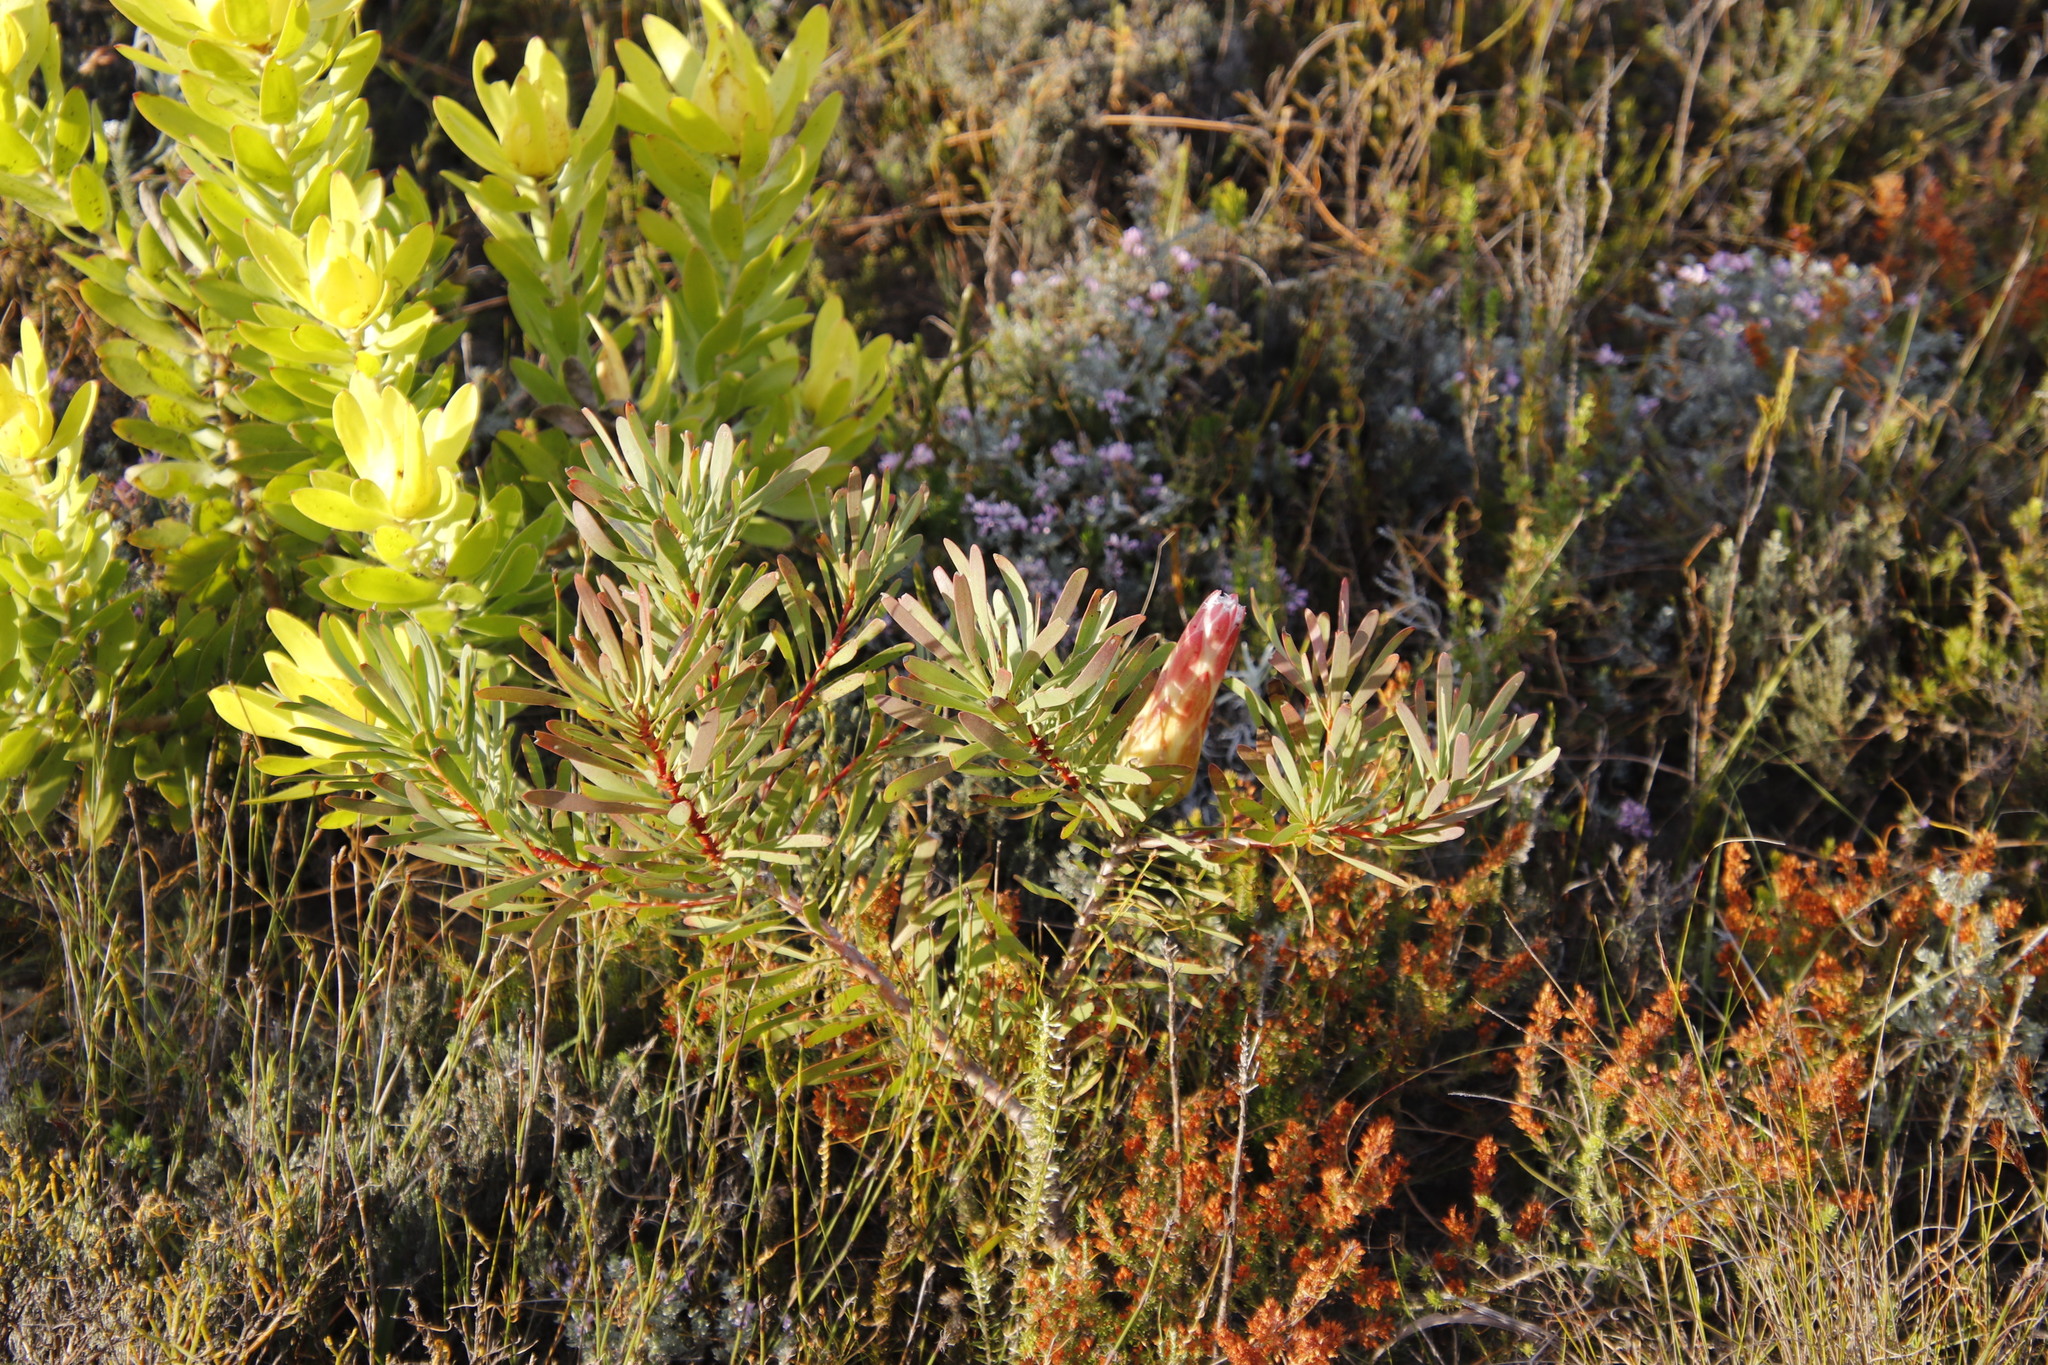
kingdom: Plantae
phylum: Tracheophyta
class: Magnoliopsida
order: Proteales
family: Proteaceae
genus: Protea
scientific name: Protea repens
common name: Sugarbush
